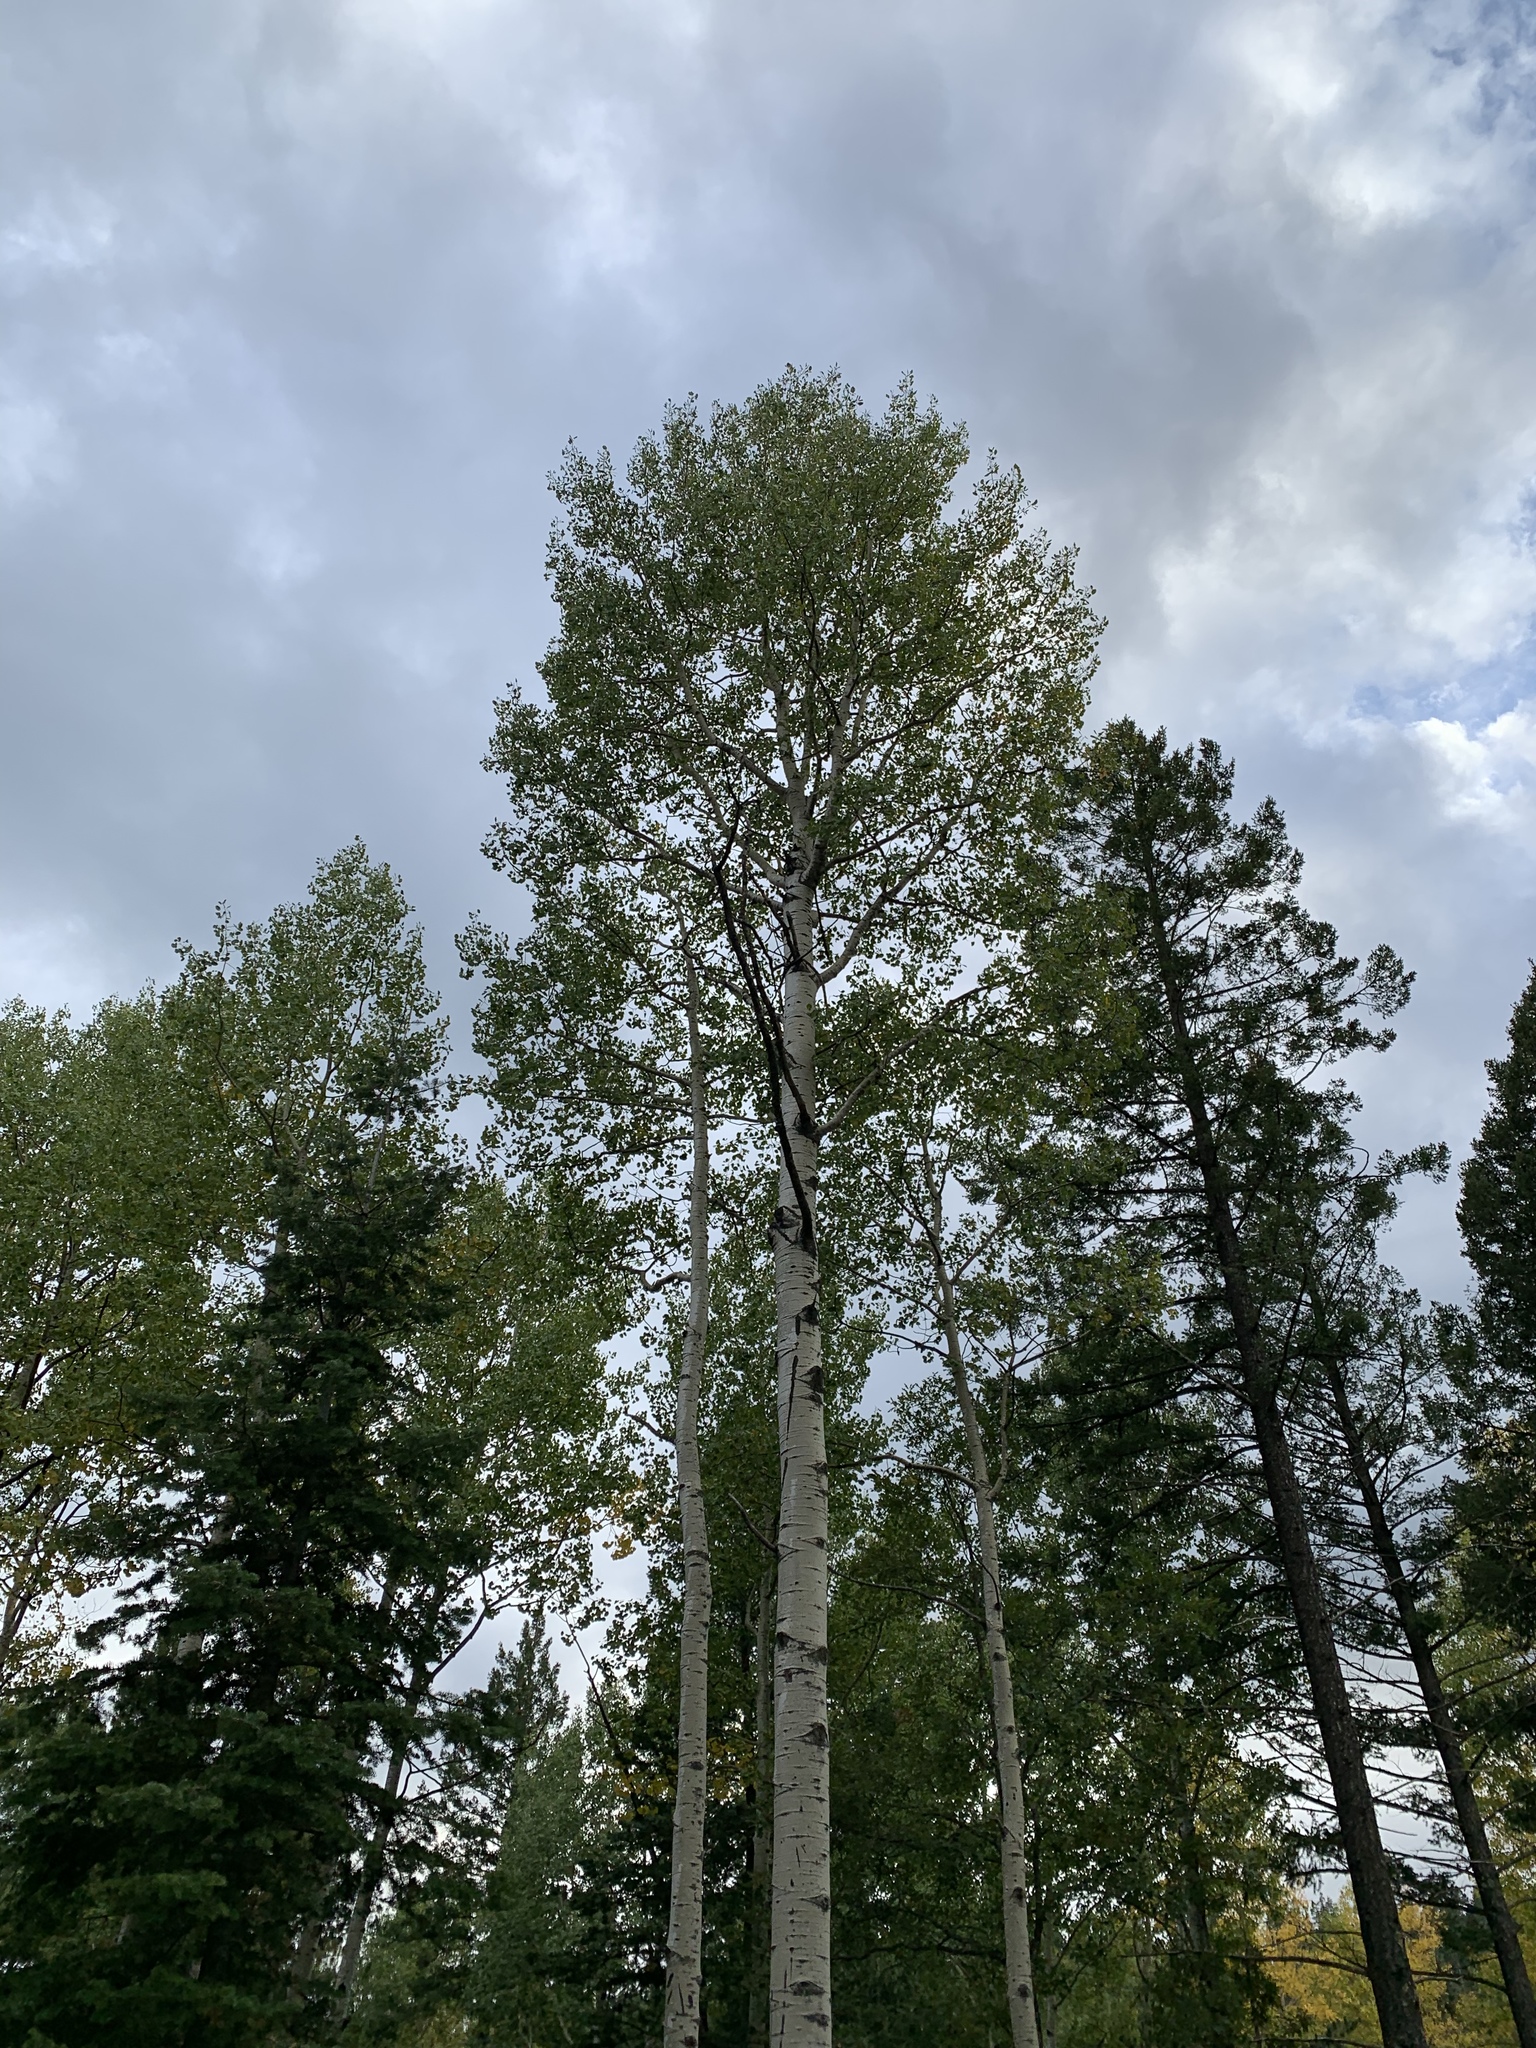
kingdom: Plantae
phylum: Tracheophyta
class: Magnoliopsida
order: Malpighiales
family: Salicaceae
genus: Populus
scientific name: Populus tremuloides
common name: Quaking aspen
